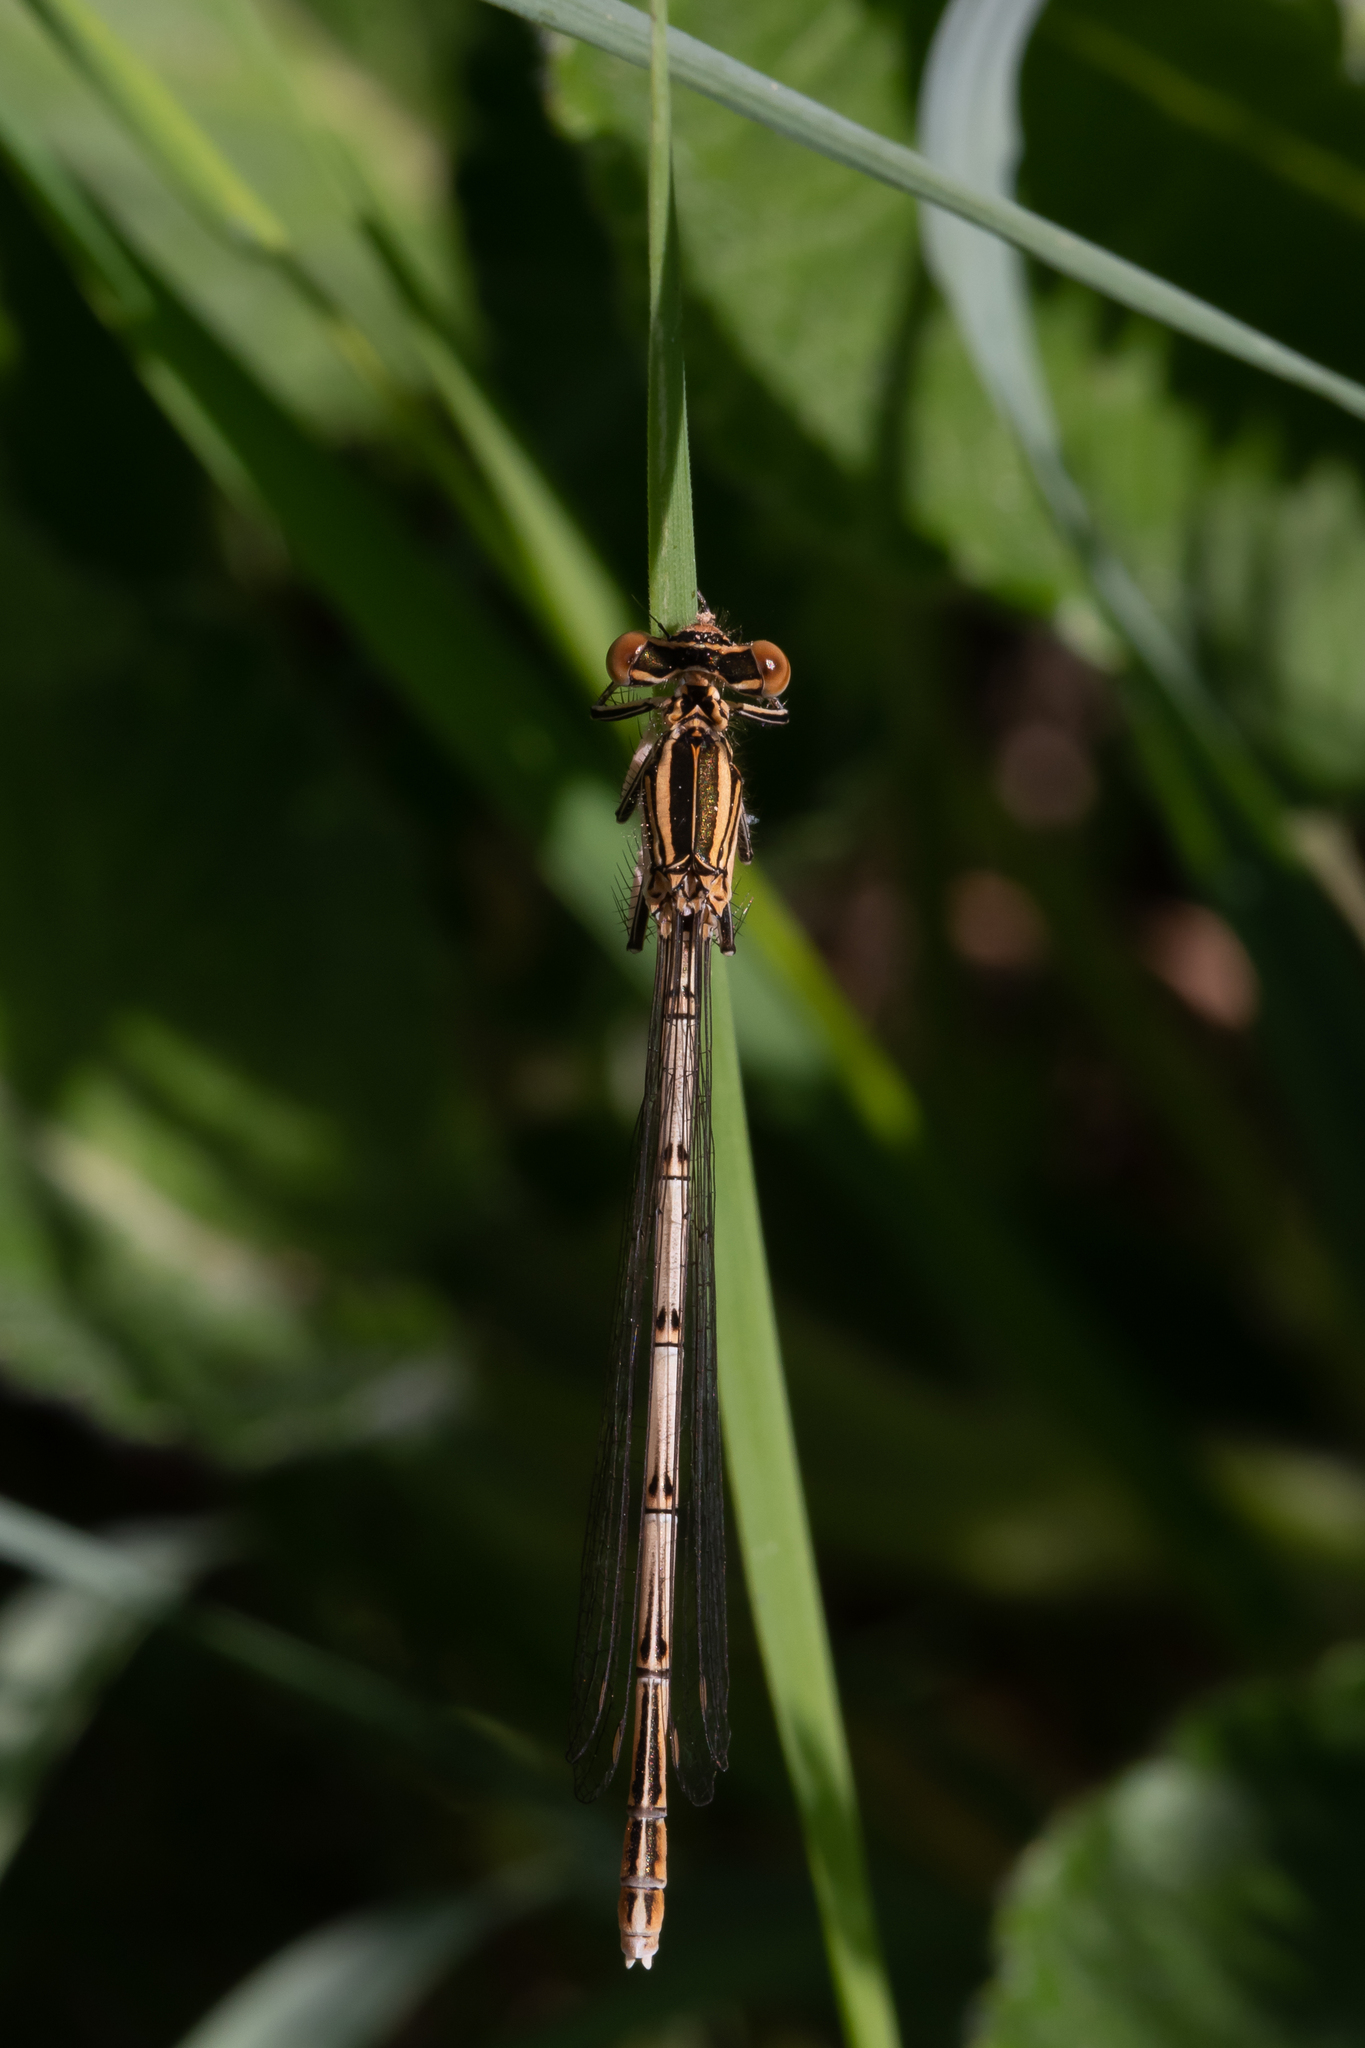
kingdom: Animalia
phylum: Arthropoda
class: Insecta
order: Odonata
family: Platycnemididae
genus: Platycnemis
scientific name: Platycnemis pennipes
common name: White-legged damselfly
